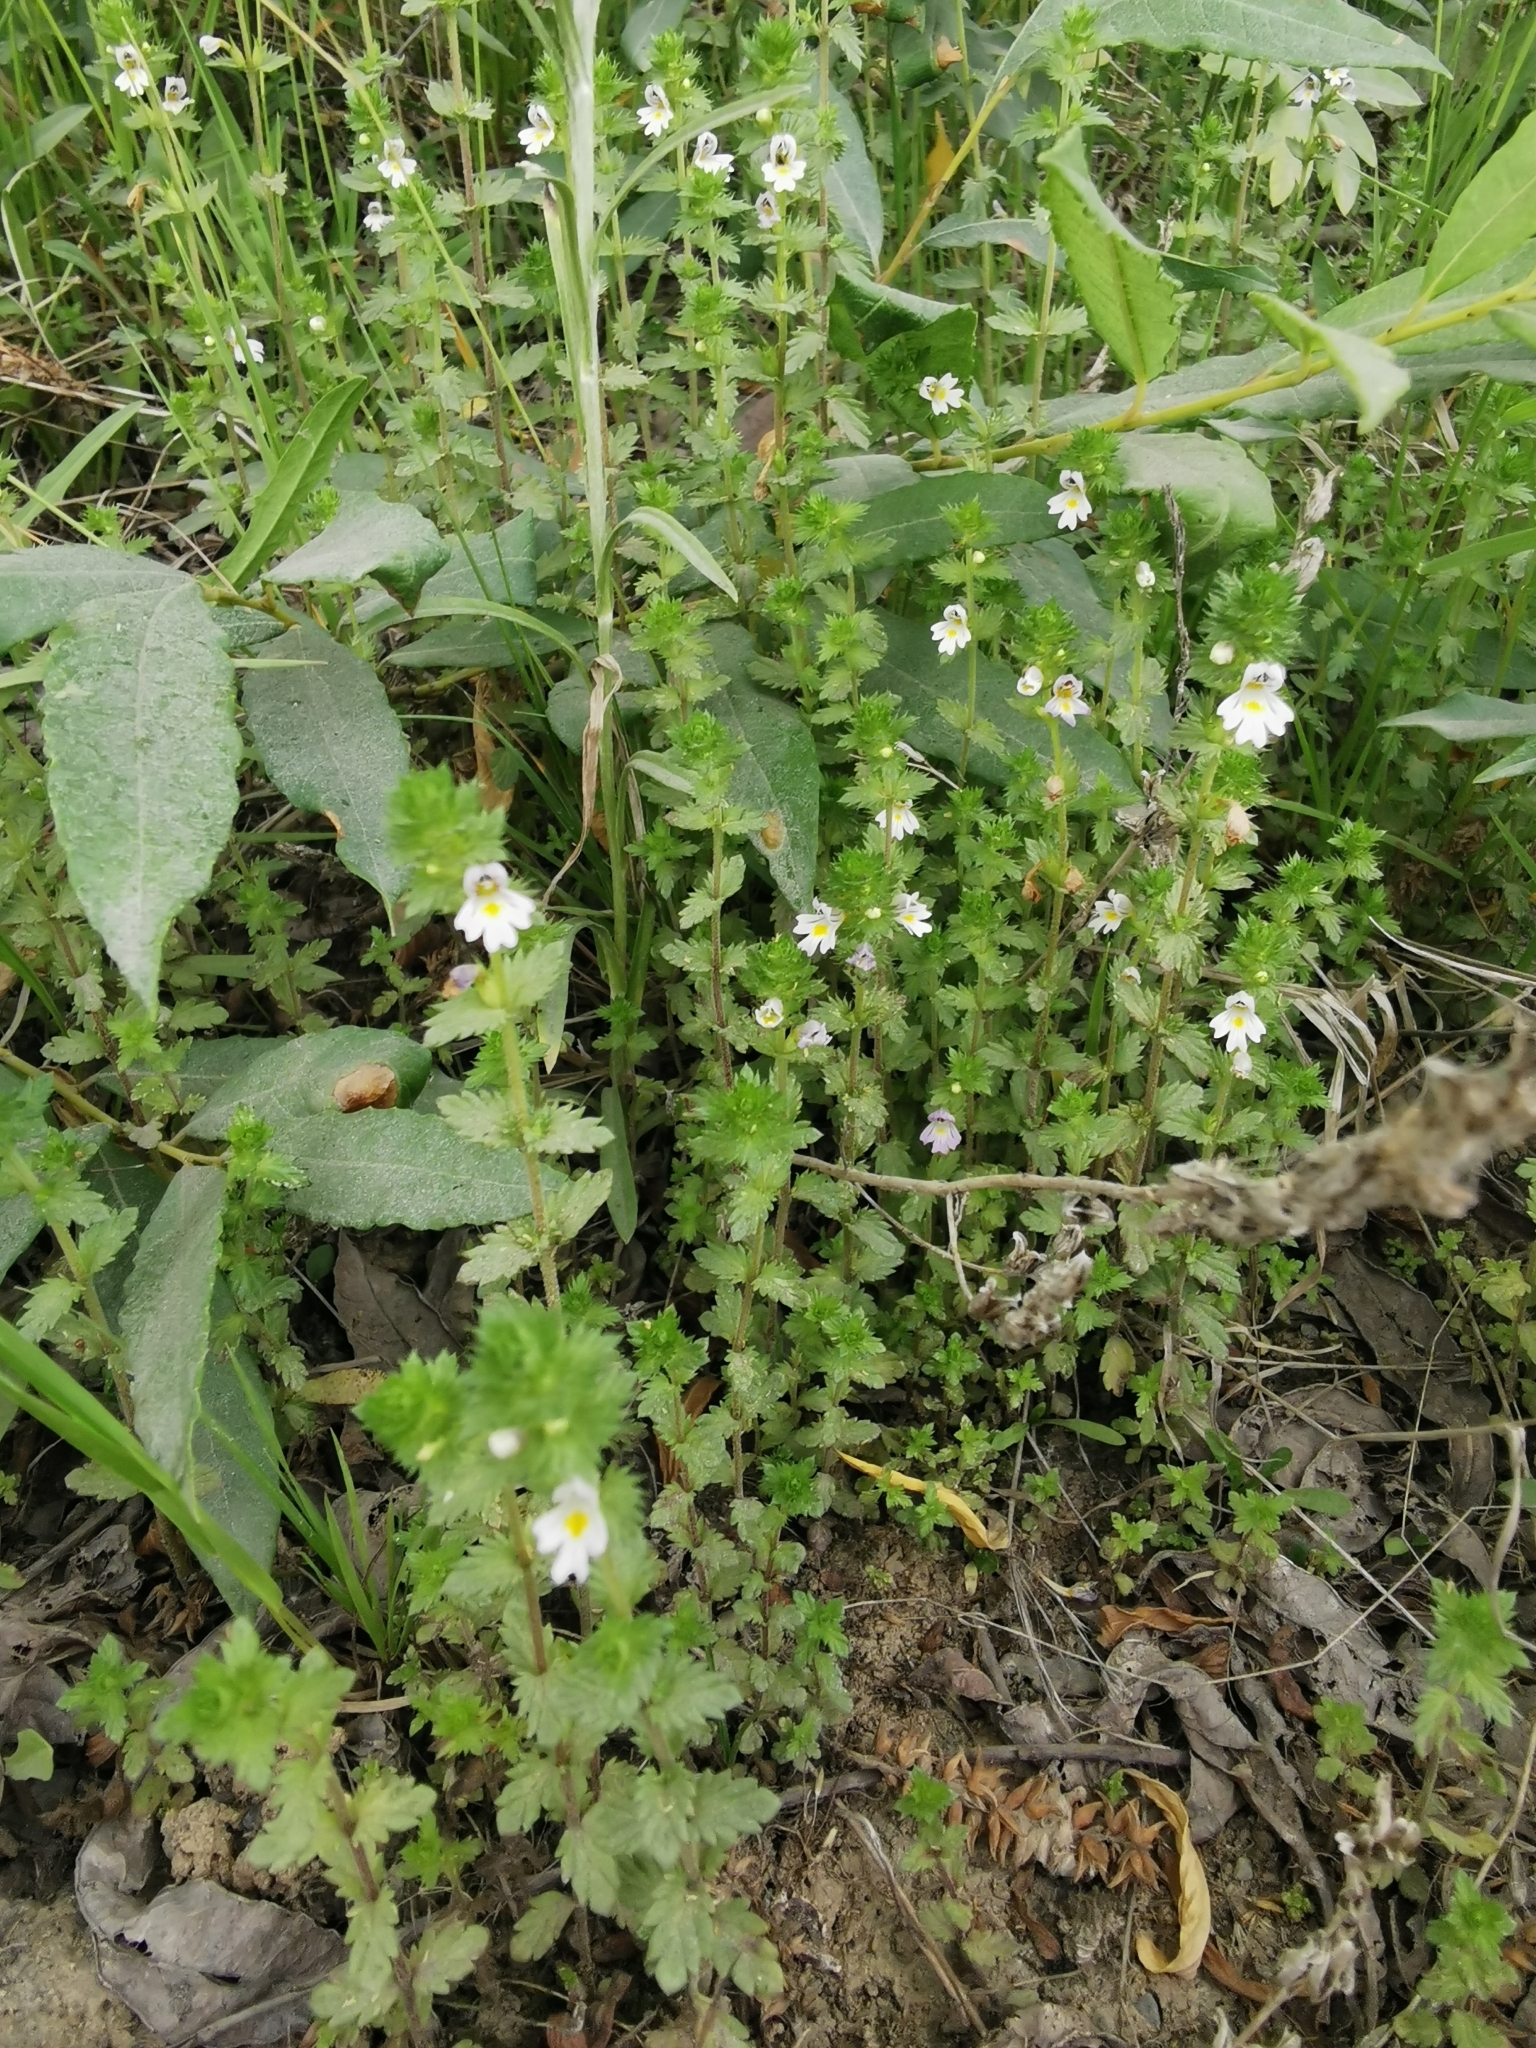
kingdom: Plantae
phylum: Tracheophyta
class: Magnoliopsida
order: Lamiales
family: Orobanchaceae
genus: Euphrasia
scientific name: Euphrasia maximowiczii
